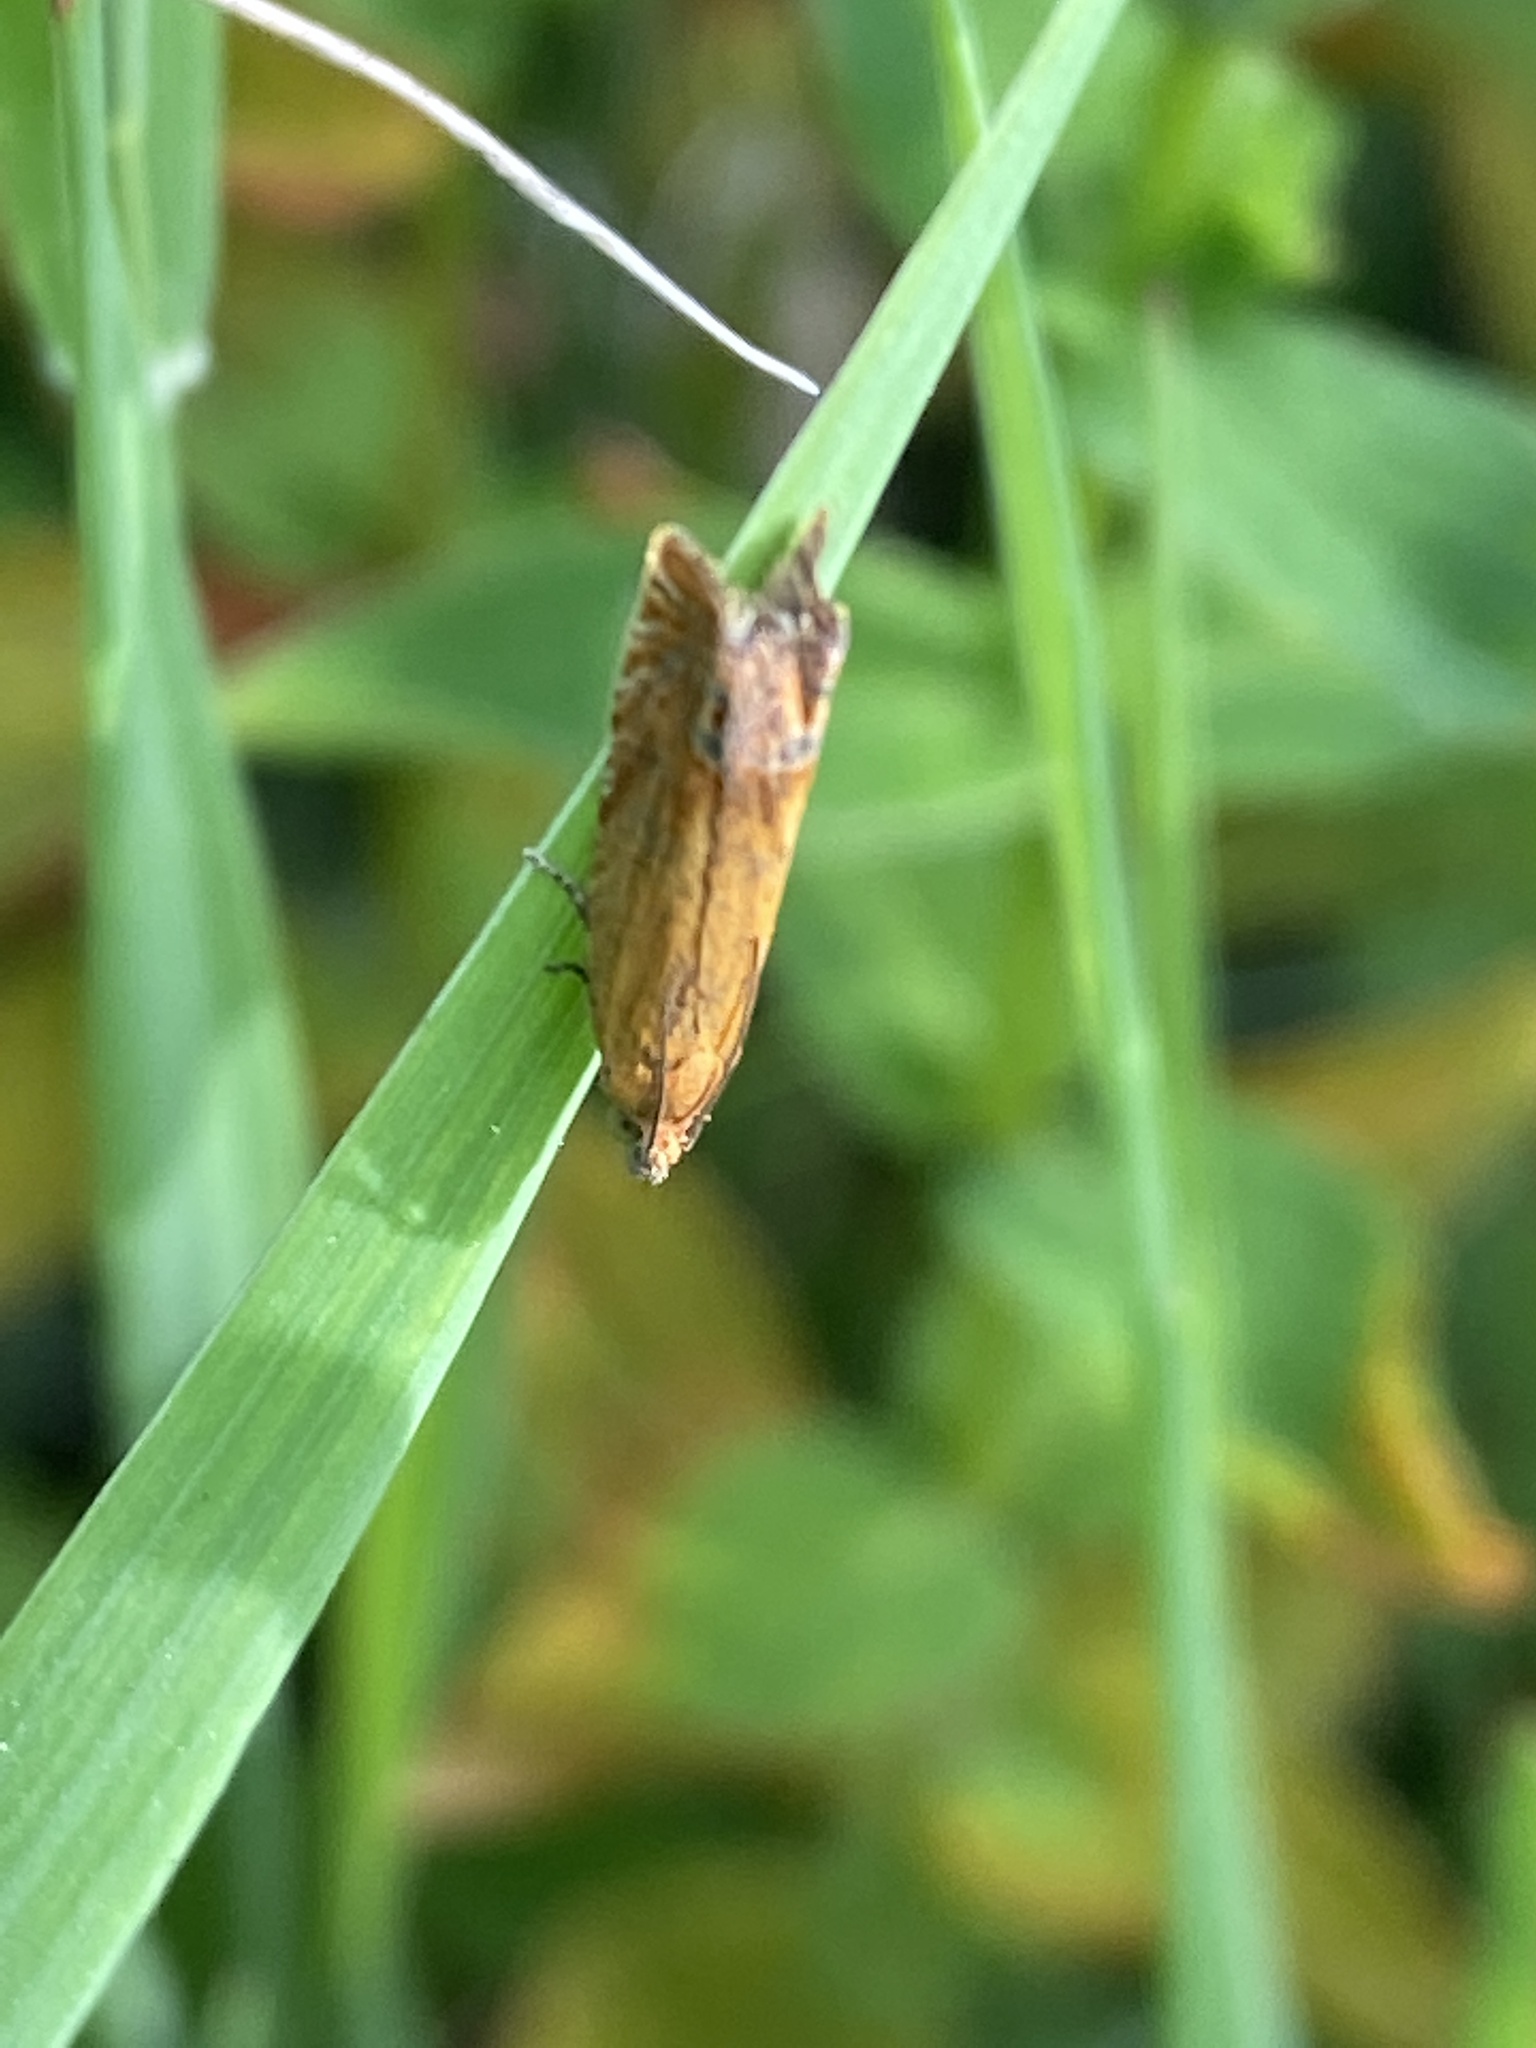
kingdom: Animalia
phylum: Arthropoda
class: Insecta
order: Lepidoptera
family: Tortricidae
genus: Lathronympha
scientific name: Lathronympha strigana
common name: Red piercer
